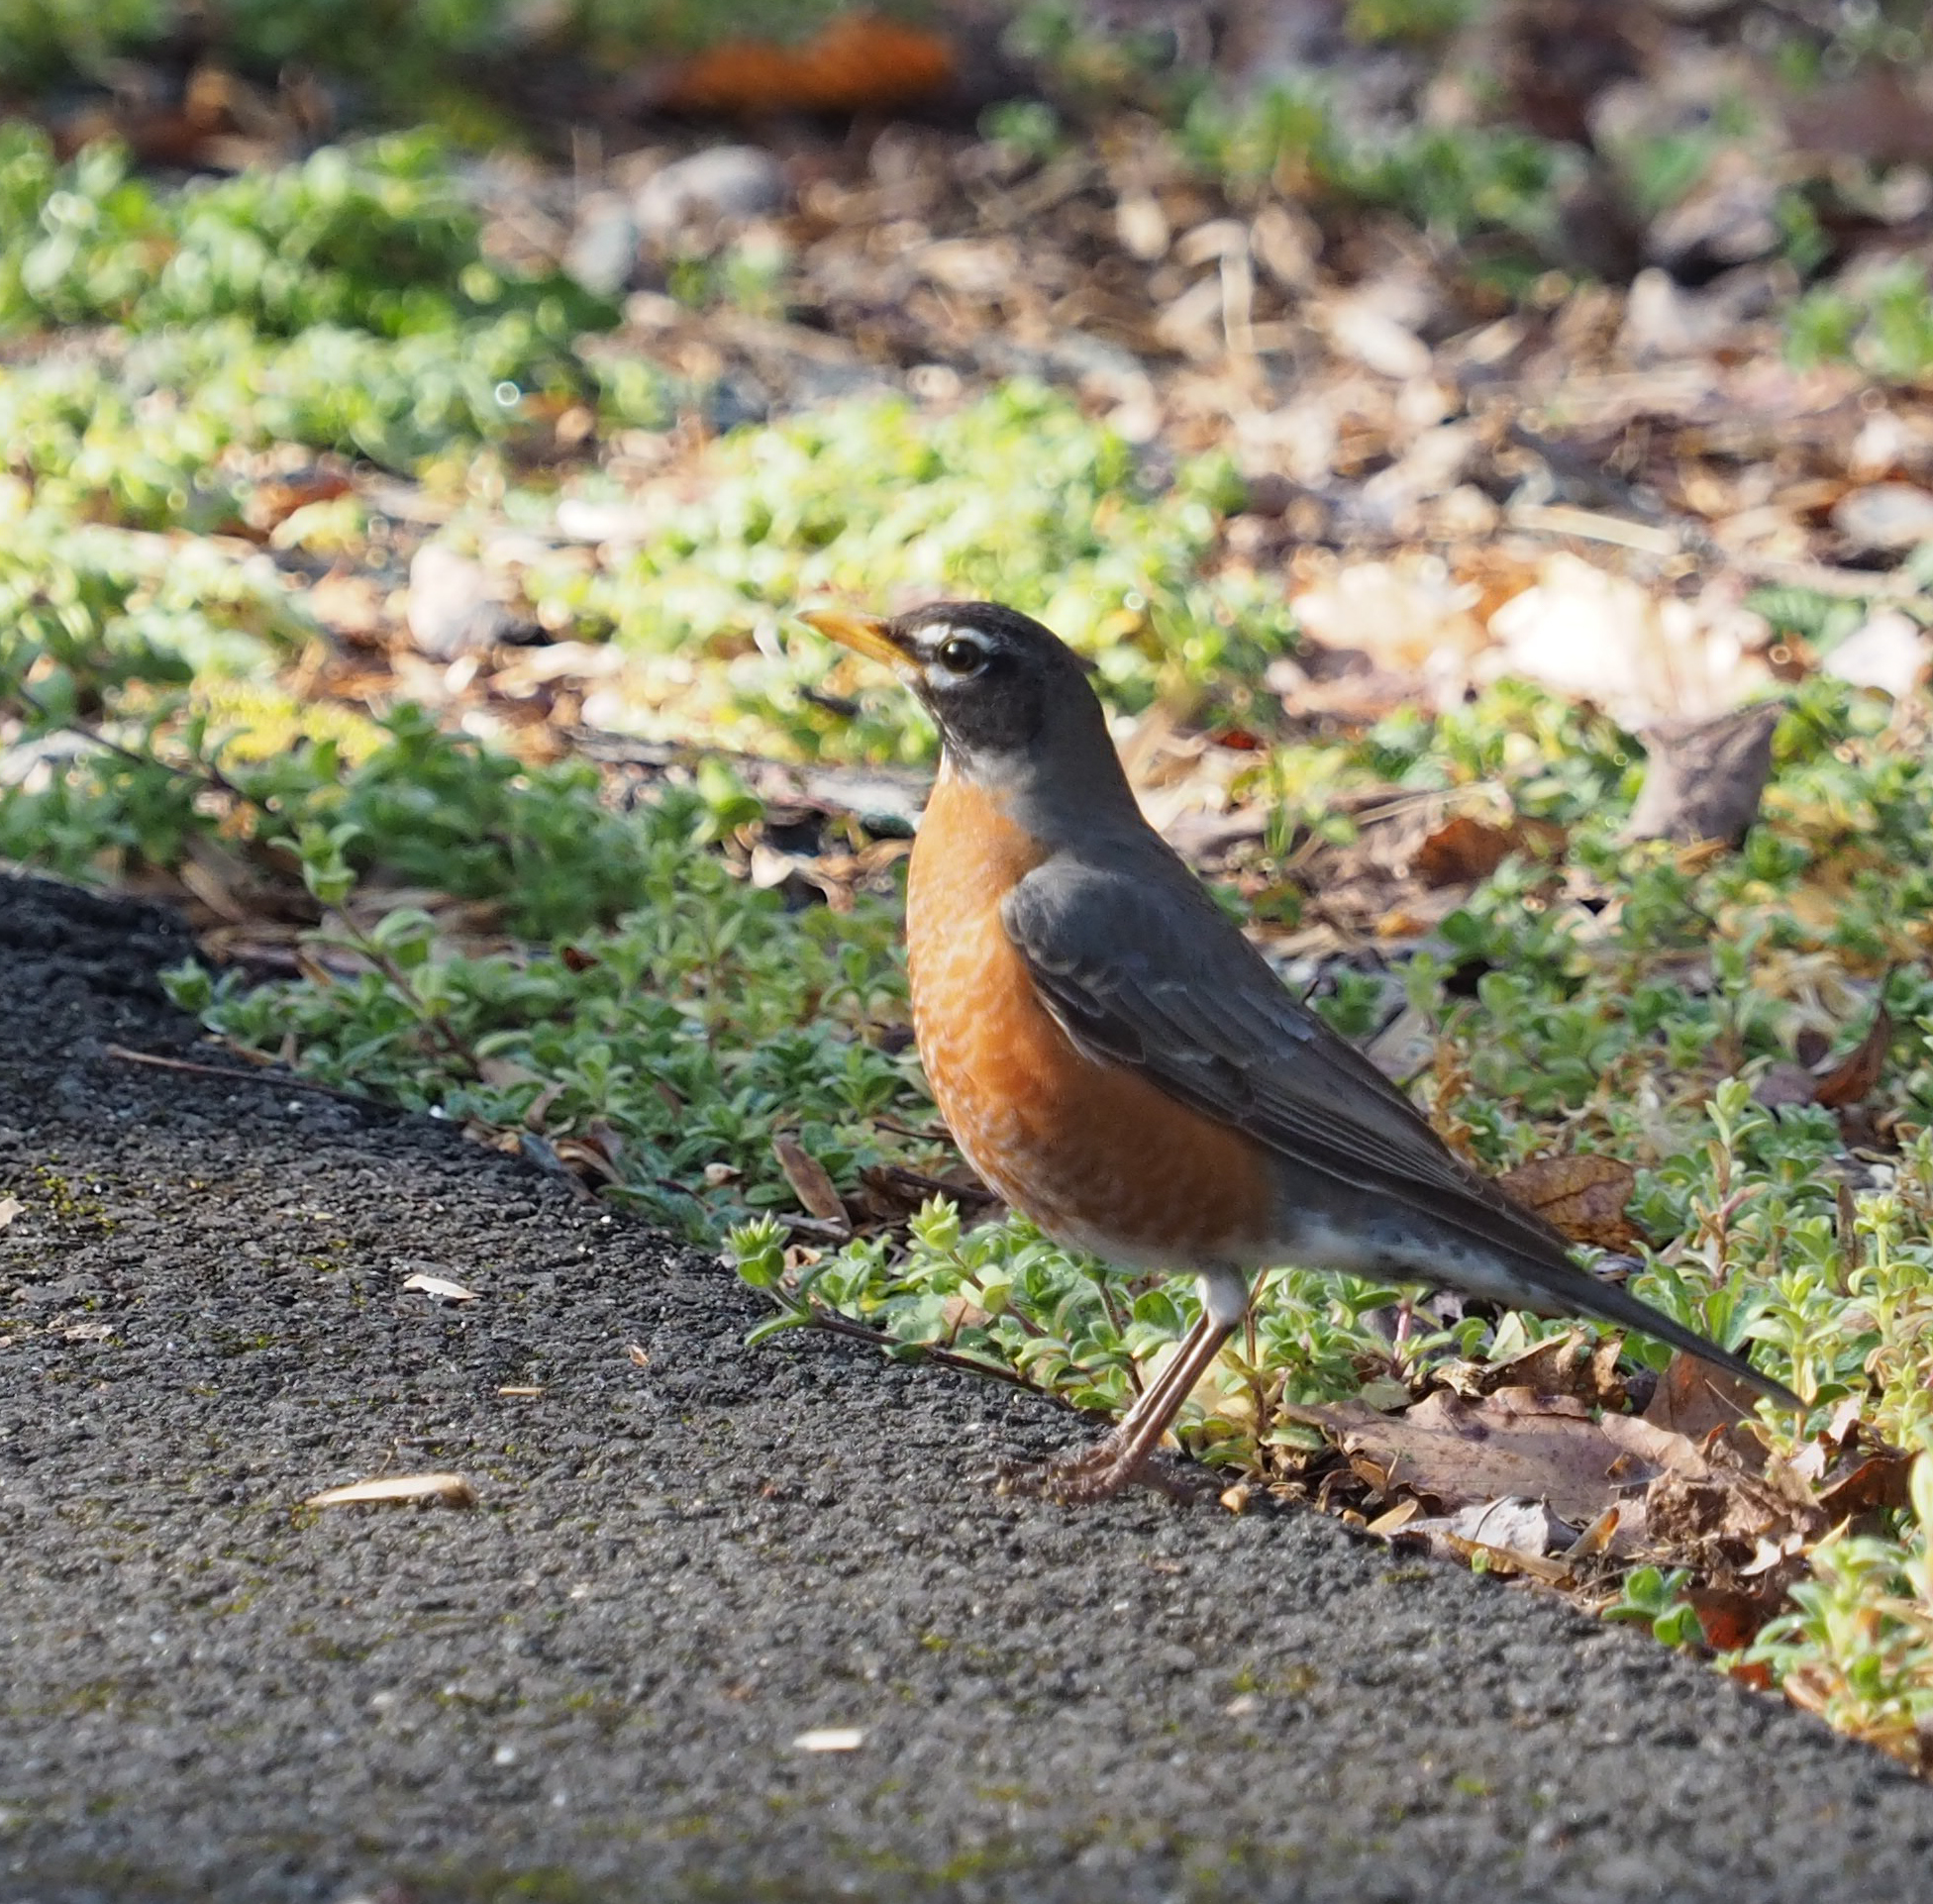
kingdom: Animalia
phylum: Chordata
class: Aves
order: Passeriformes
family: Turdidae
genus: Turdus
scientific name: Turdus migratorius
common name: American robin
